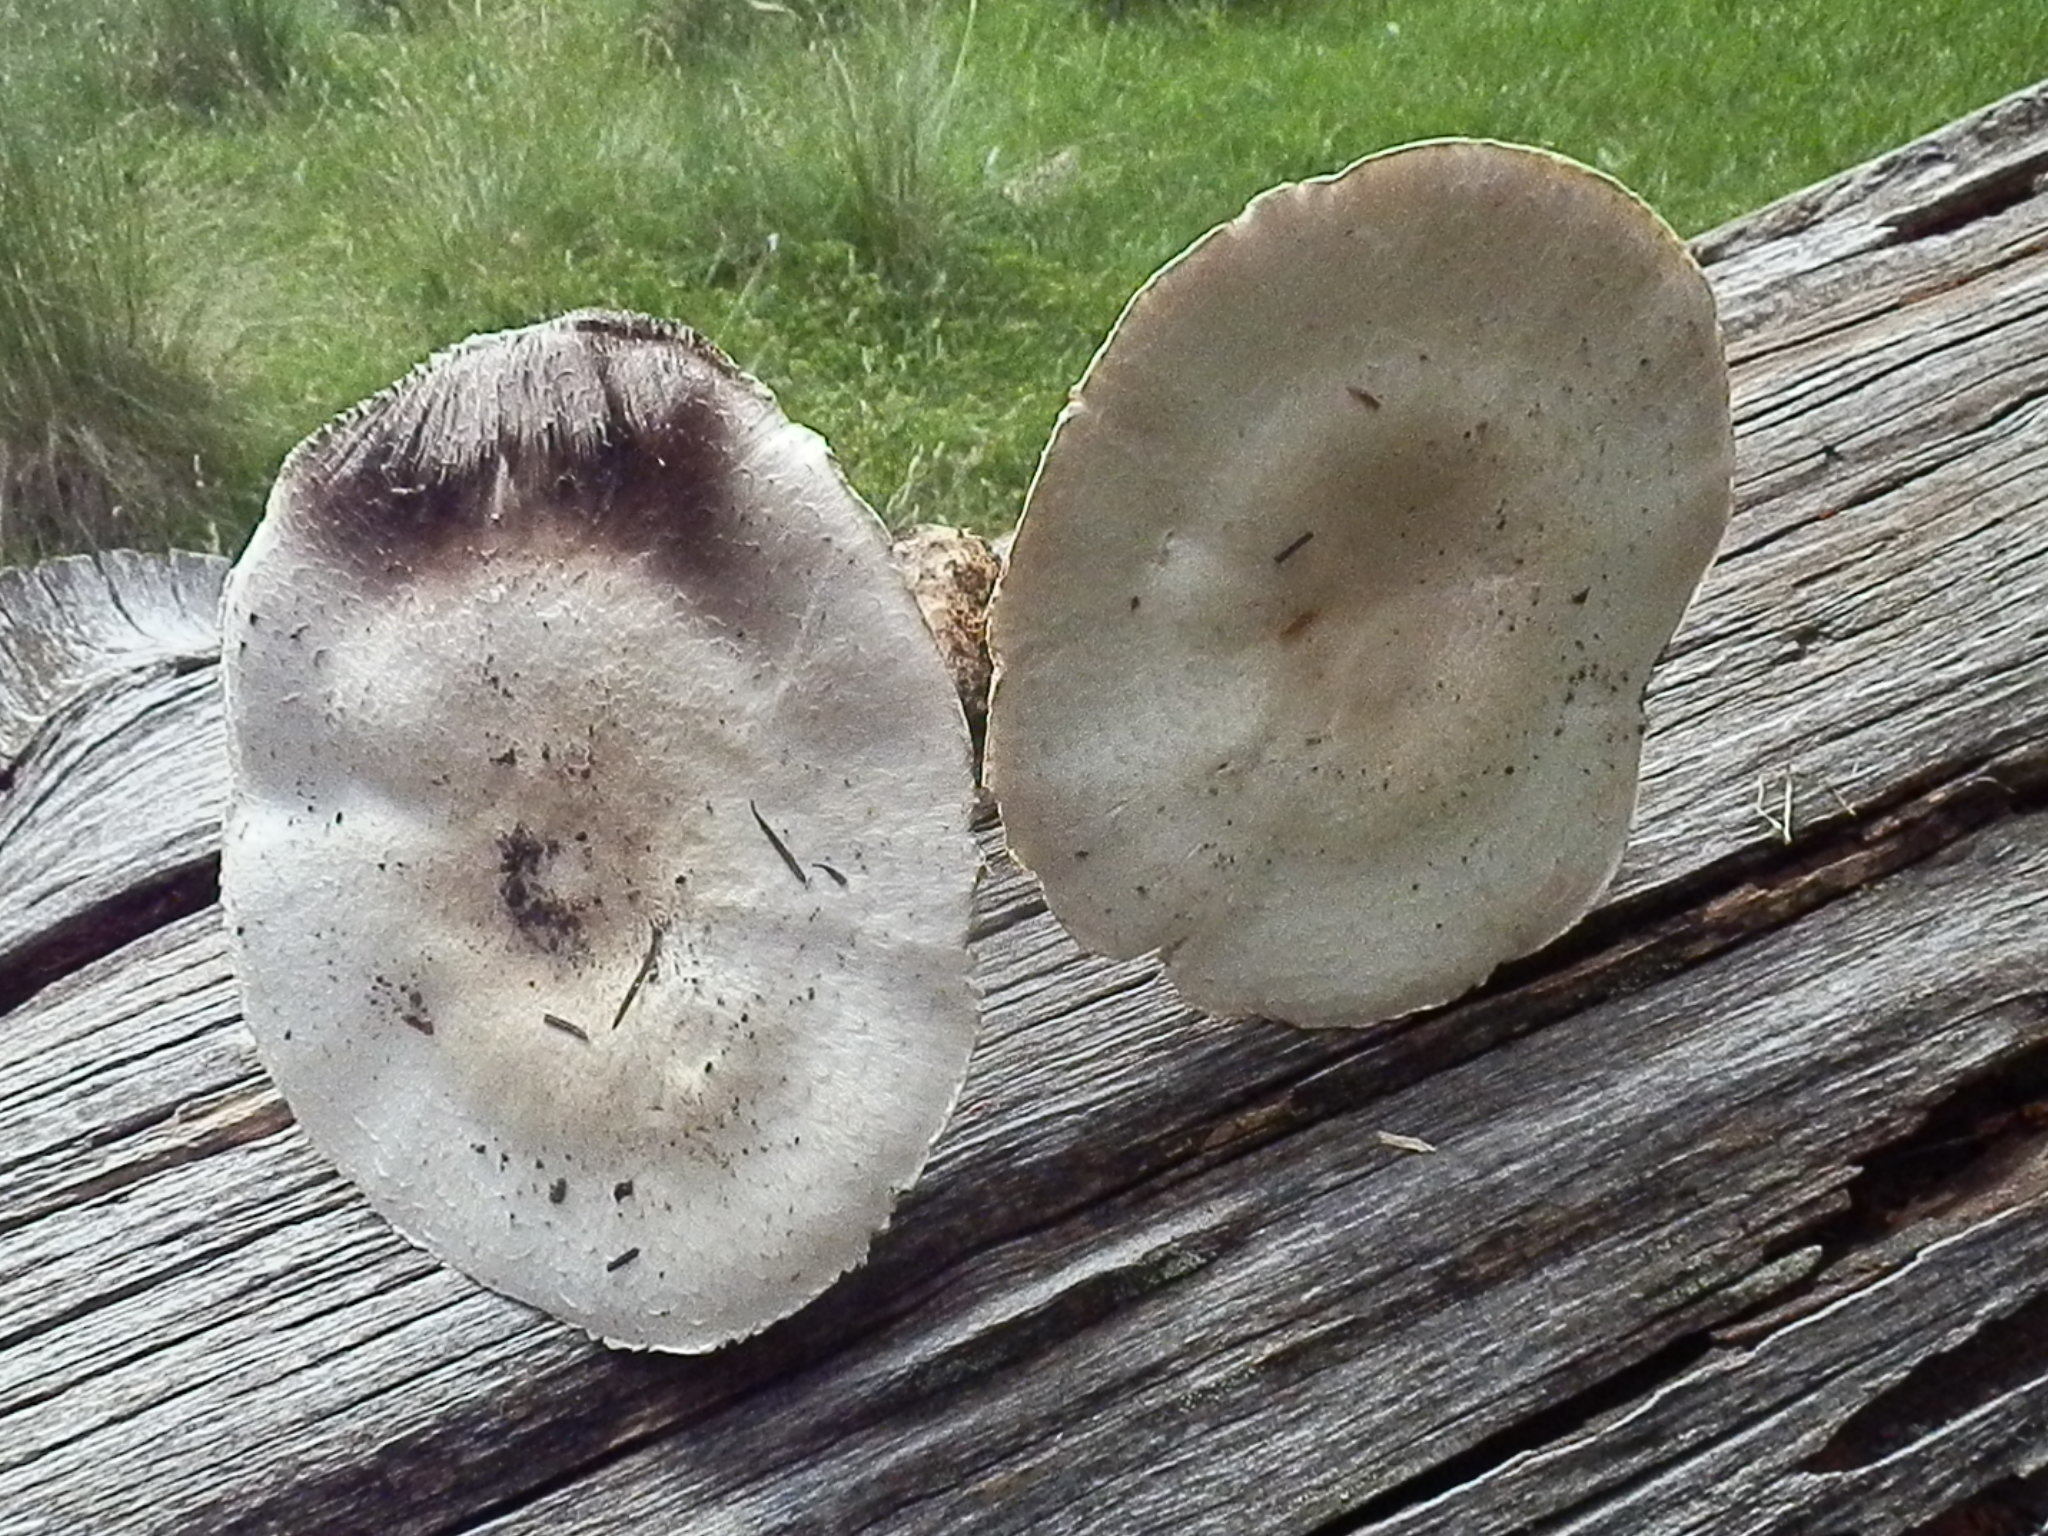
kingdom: Fungi
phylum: Basidiomycota
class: Agaricomycetes
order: Agaricales
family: Agaricaceae
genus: Agaricus
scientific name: Agaricus didymus
